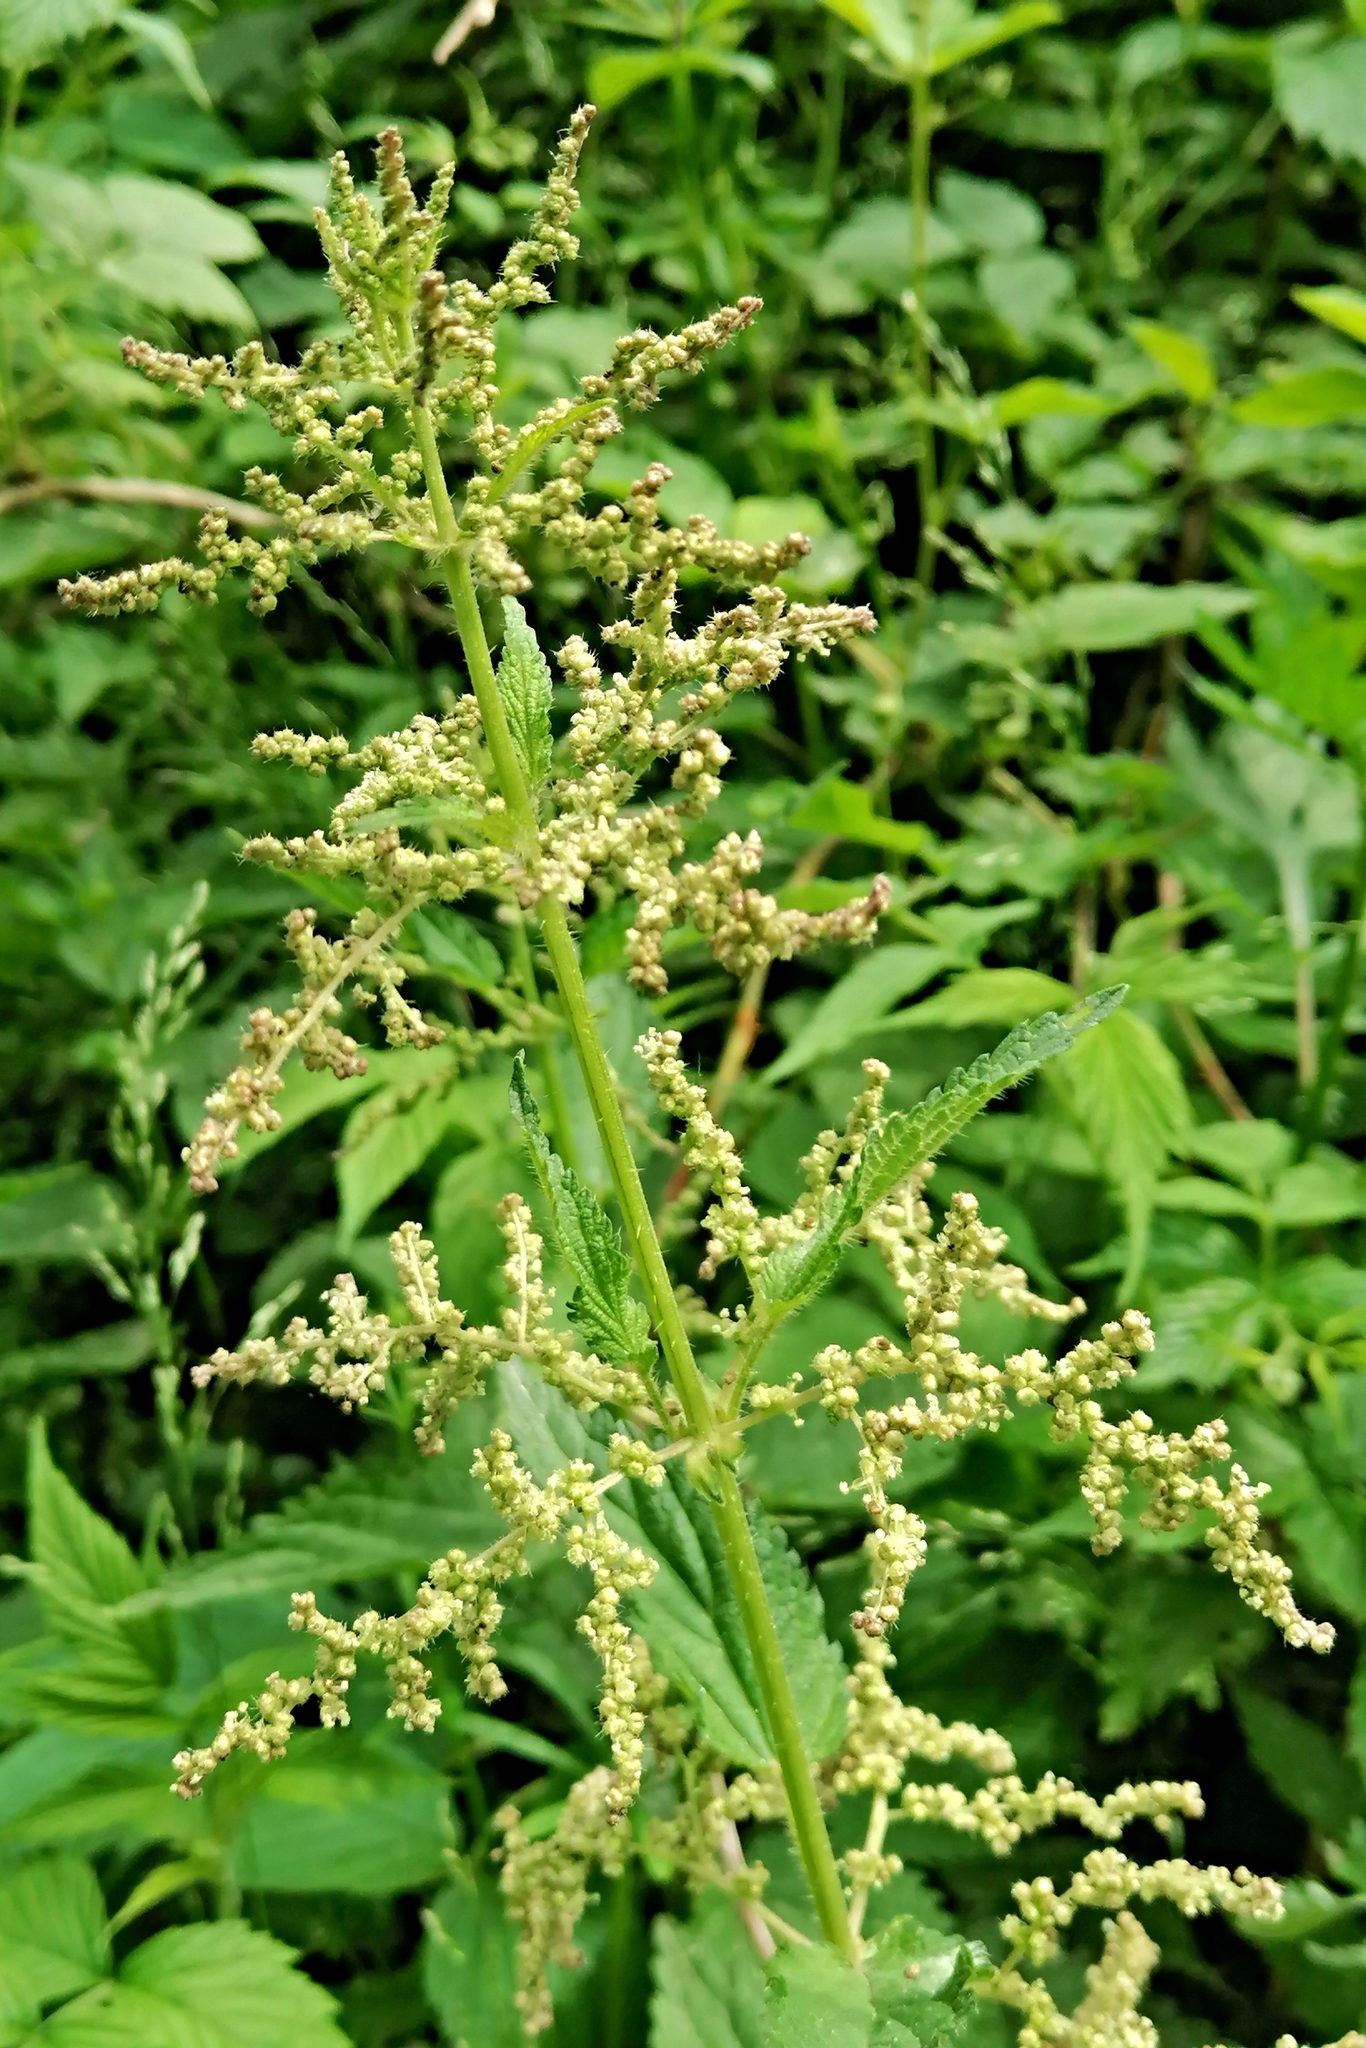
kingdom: Plantae
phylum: Tracheophyta
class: Magnoliopsida
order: Rosales
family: Urticaceae
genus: Urtica
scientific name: Urtica dioica
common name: Common nettle
